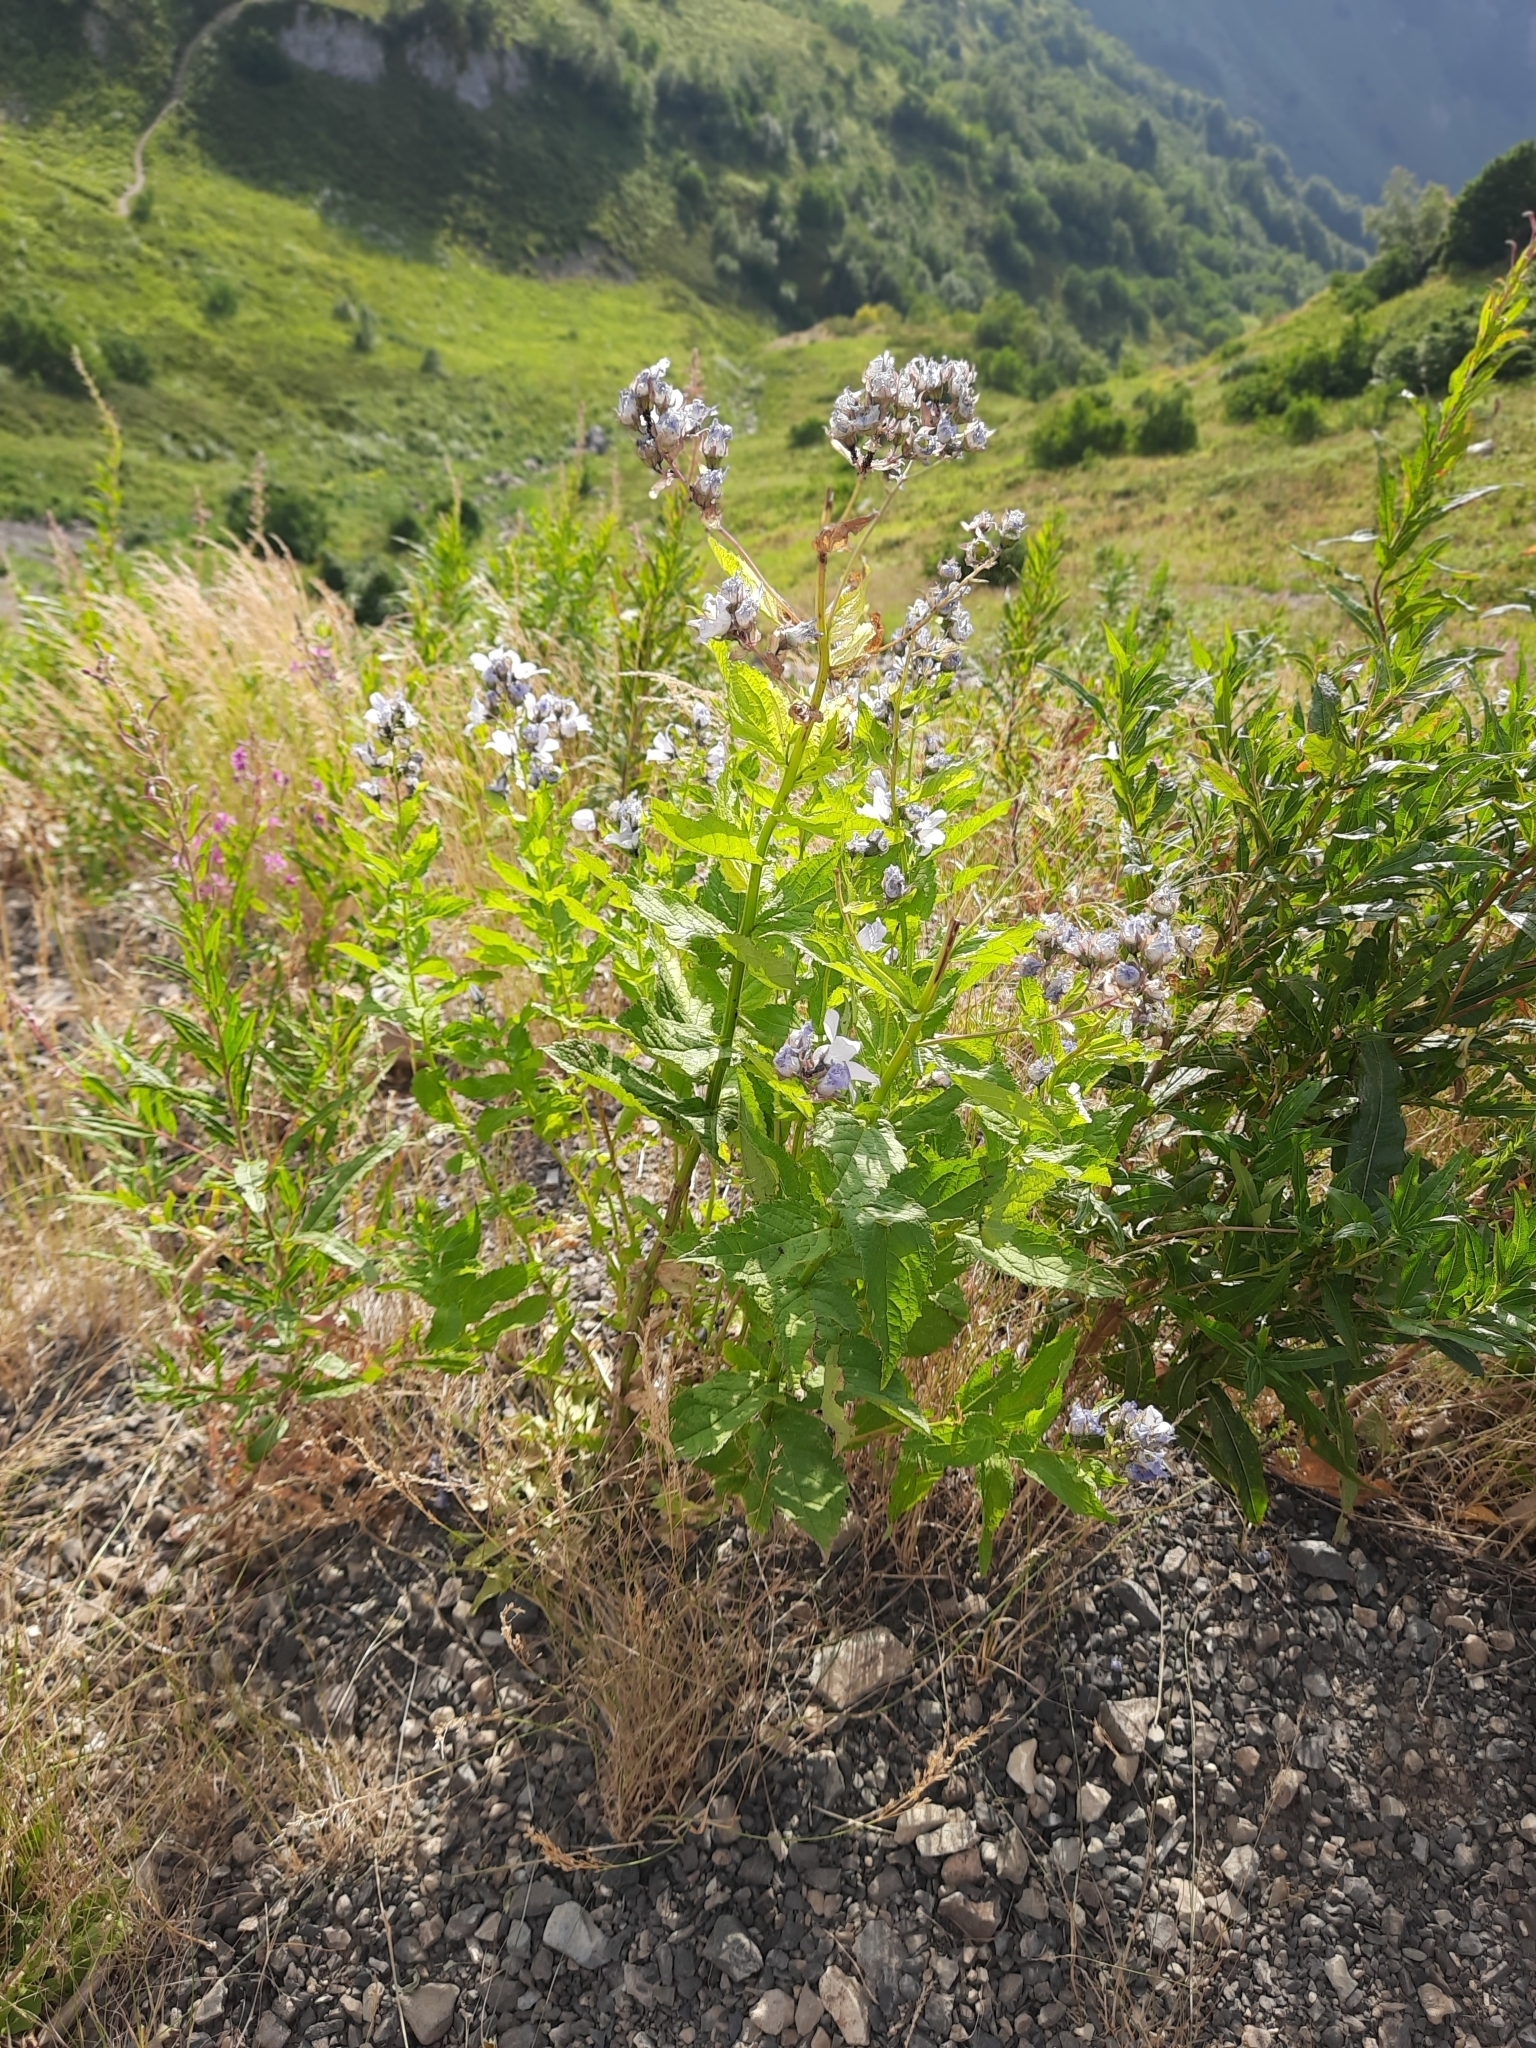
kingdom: Plantae
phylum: Tracheophyta
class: Magnoliopsida
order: Asterales
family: Campanulaceae
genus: Campanula
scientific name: Campanula lactiflora
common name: Milky bellflower
